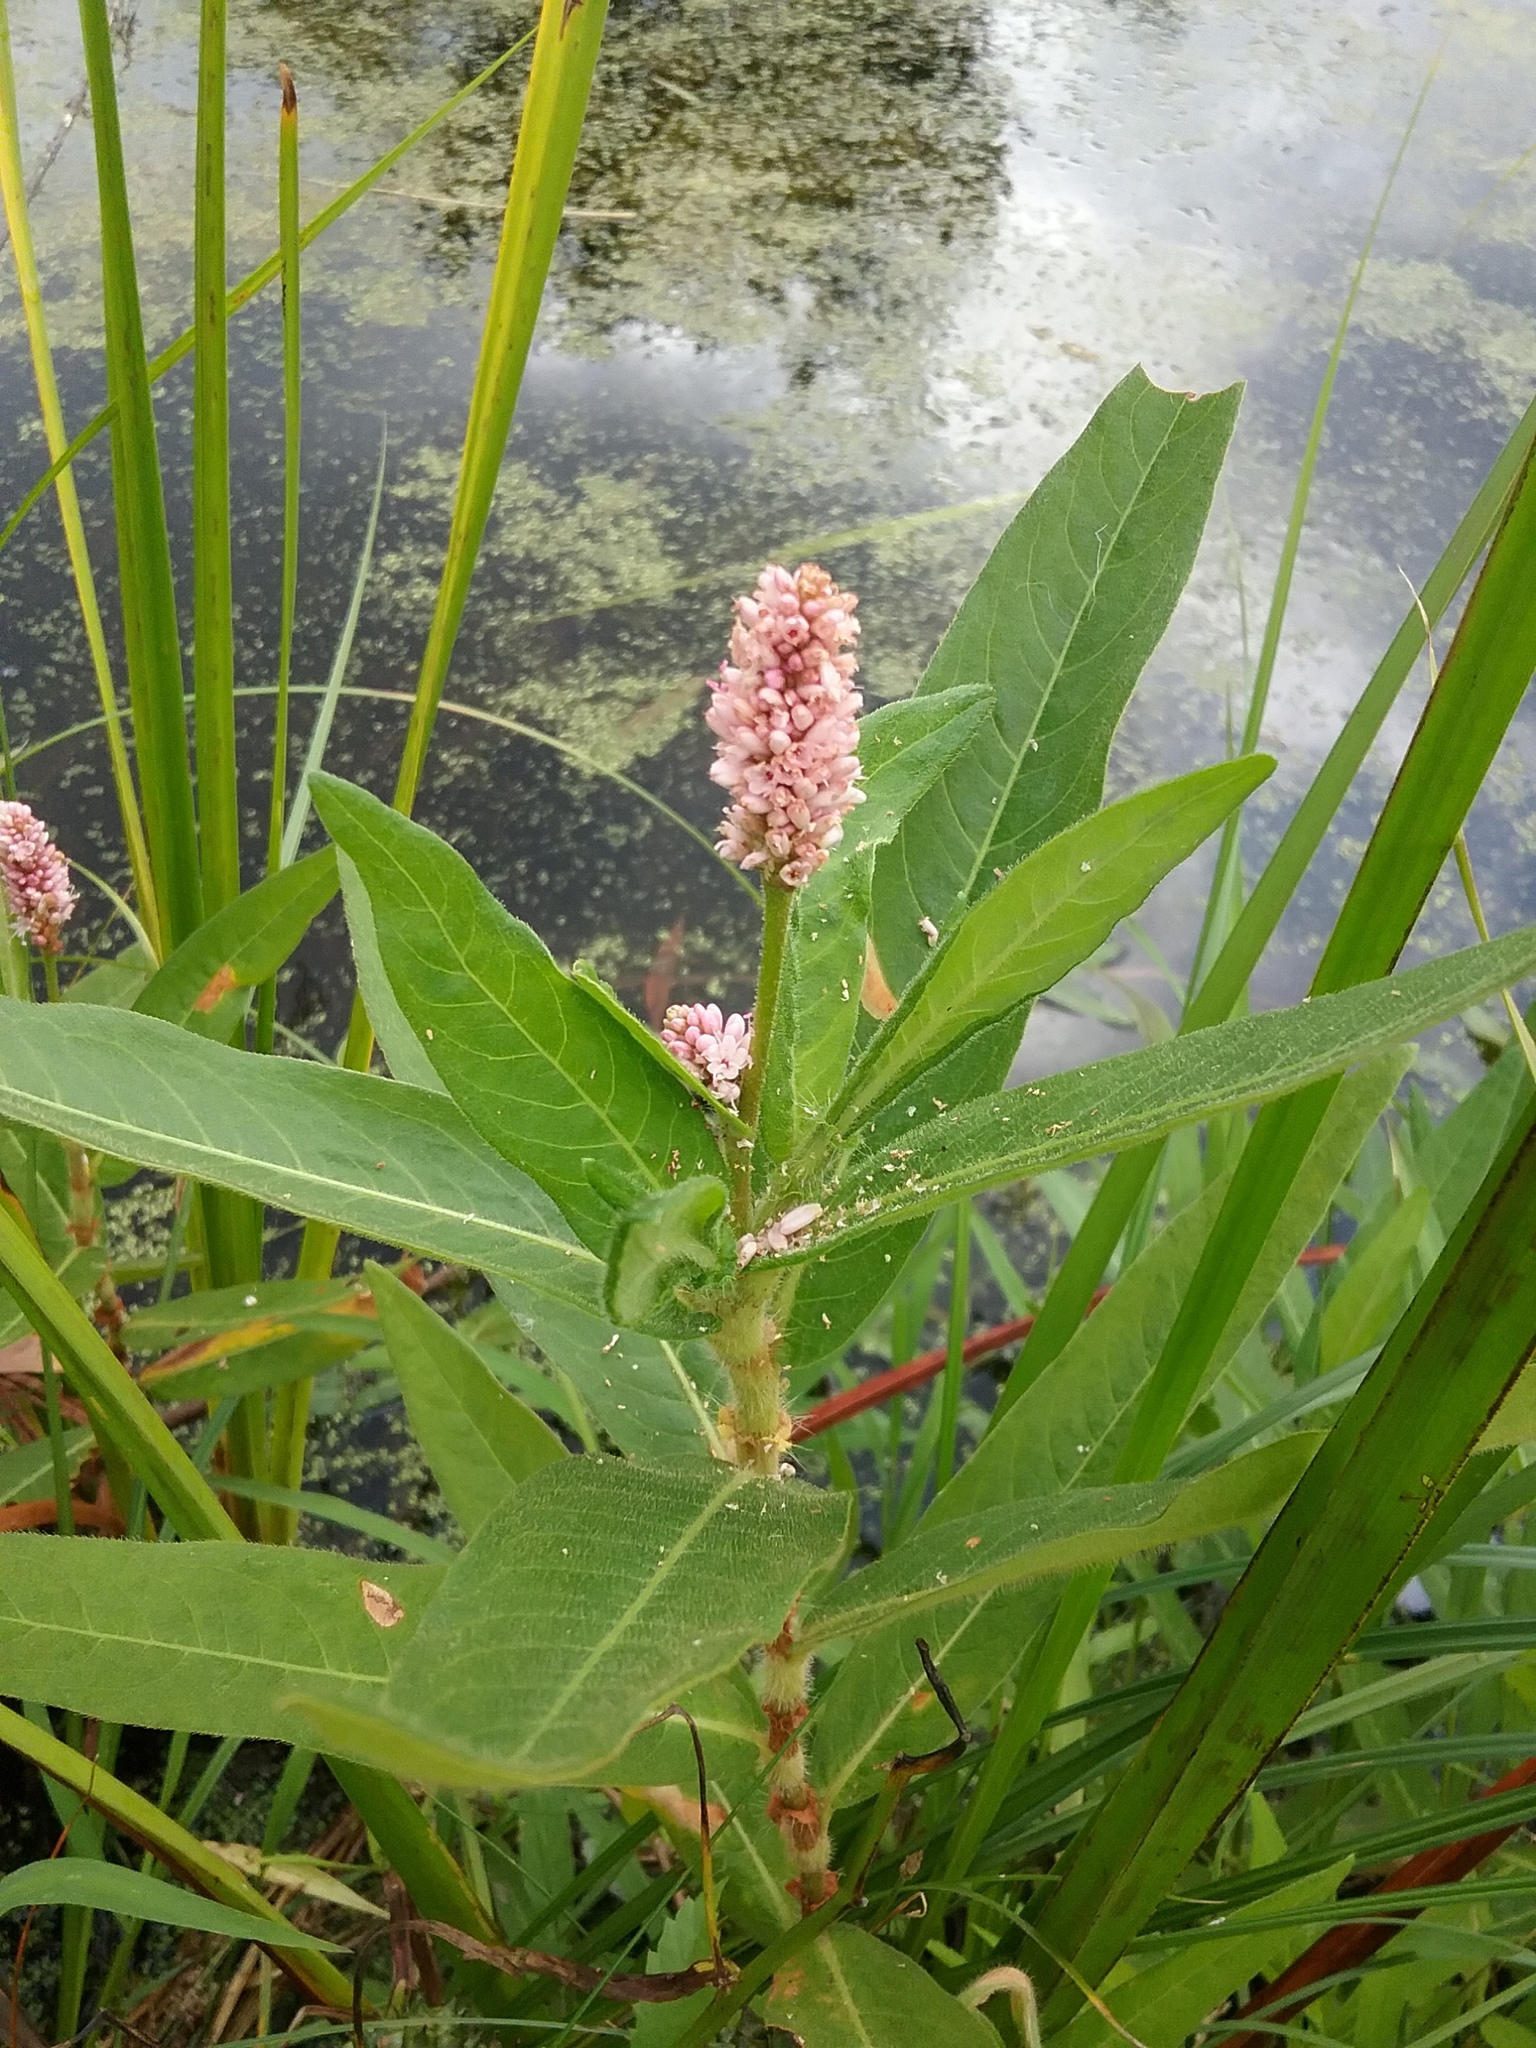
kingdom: Plantae
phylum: Tracheophyta
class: Magnoliopsida
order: Caryophyllales
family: Polygonaceae
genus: Persicaria
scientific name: Persicaria amphibia
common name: Amphibious bistort
